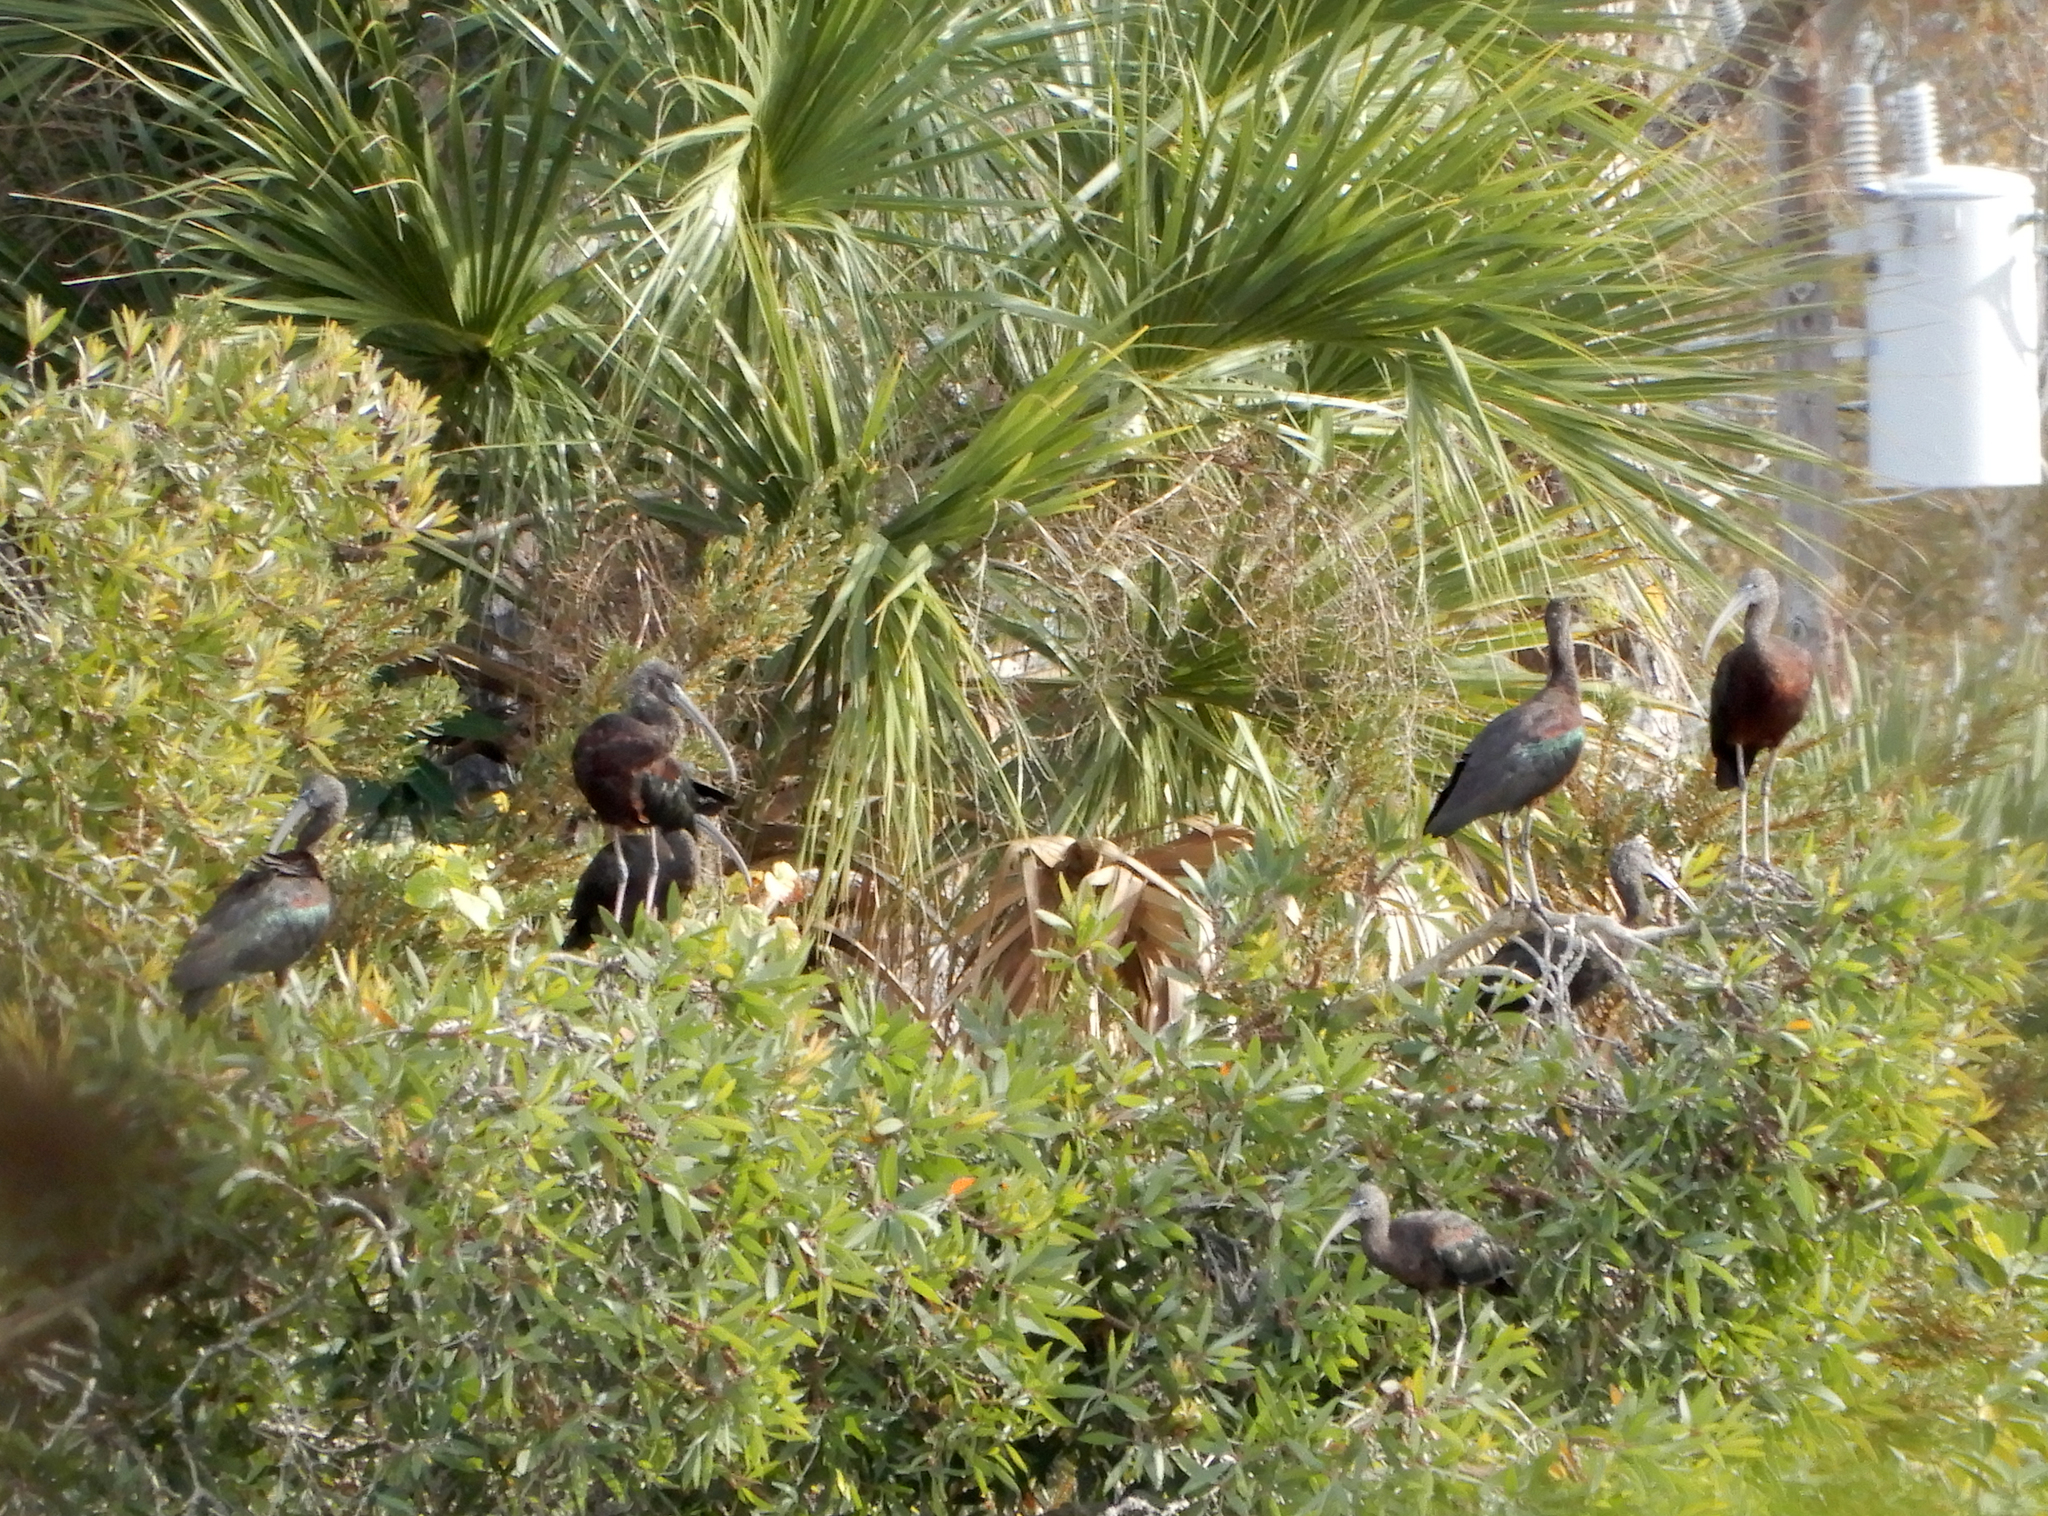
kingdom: Animalia
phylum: Chordata
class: Aves
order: Pelecaniformes
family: Threskiornithidae
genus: Plegadis
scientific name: Plegadis falcinellus
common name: Glossy ibis
